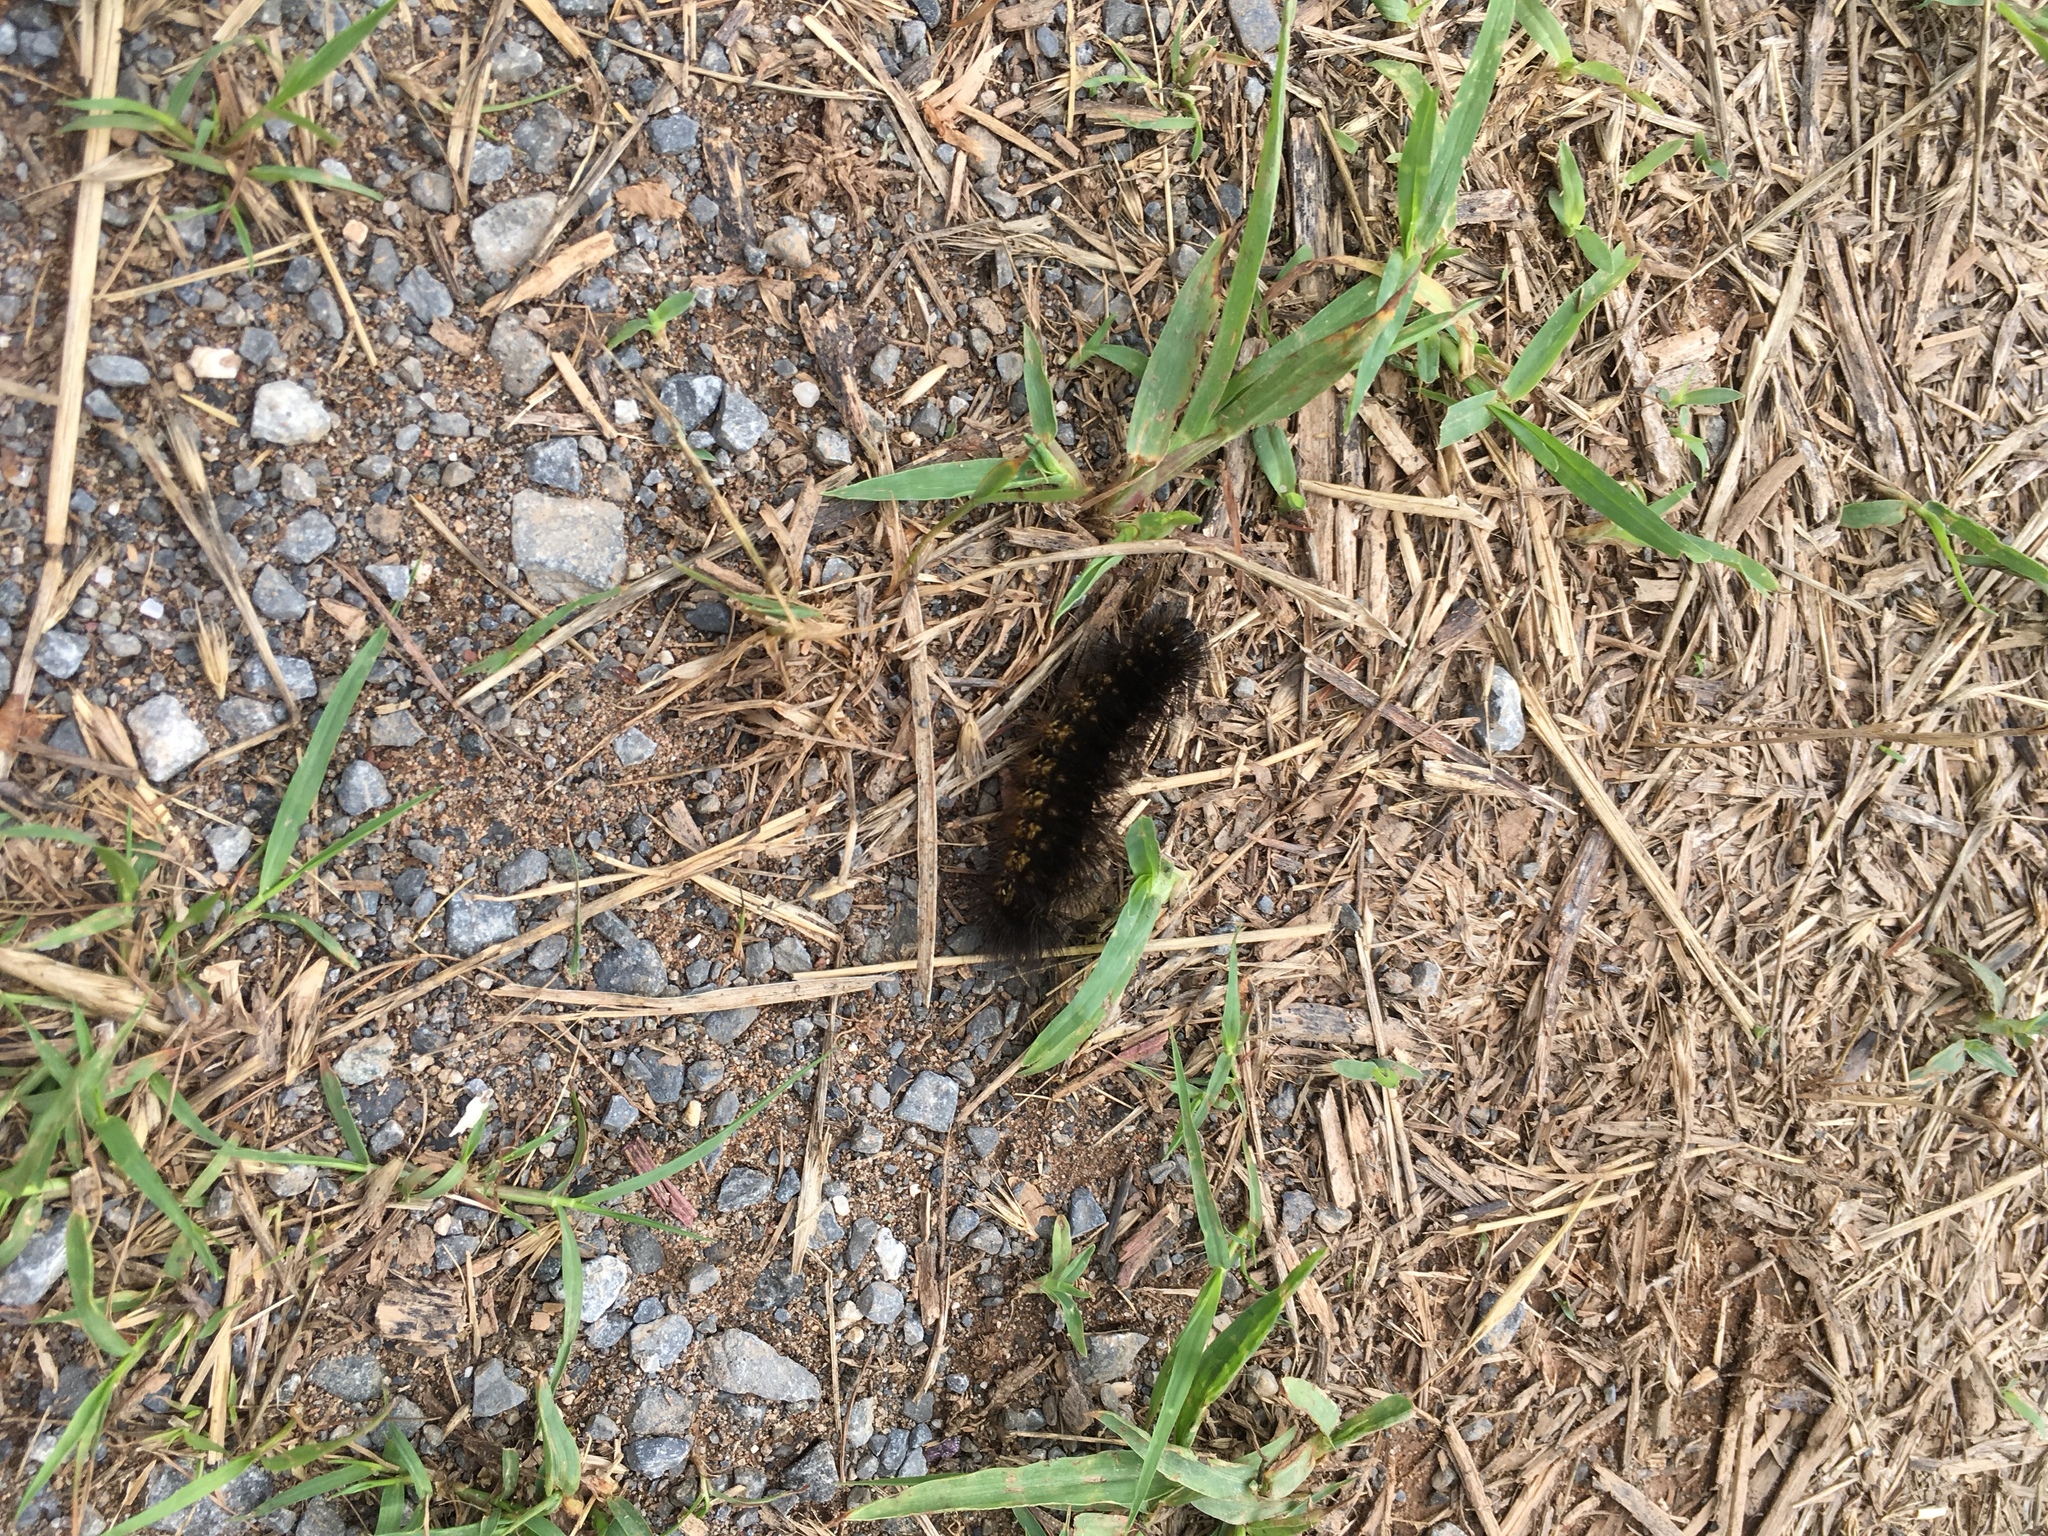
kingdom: Animalia
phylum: Arthropoda
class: Insecta
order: Lepidoptera
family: Erebidae
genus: Estigmene
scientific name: Estigmene acrea
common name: Salt marsh moth
